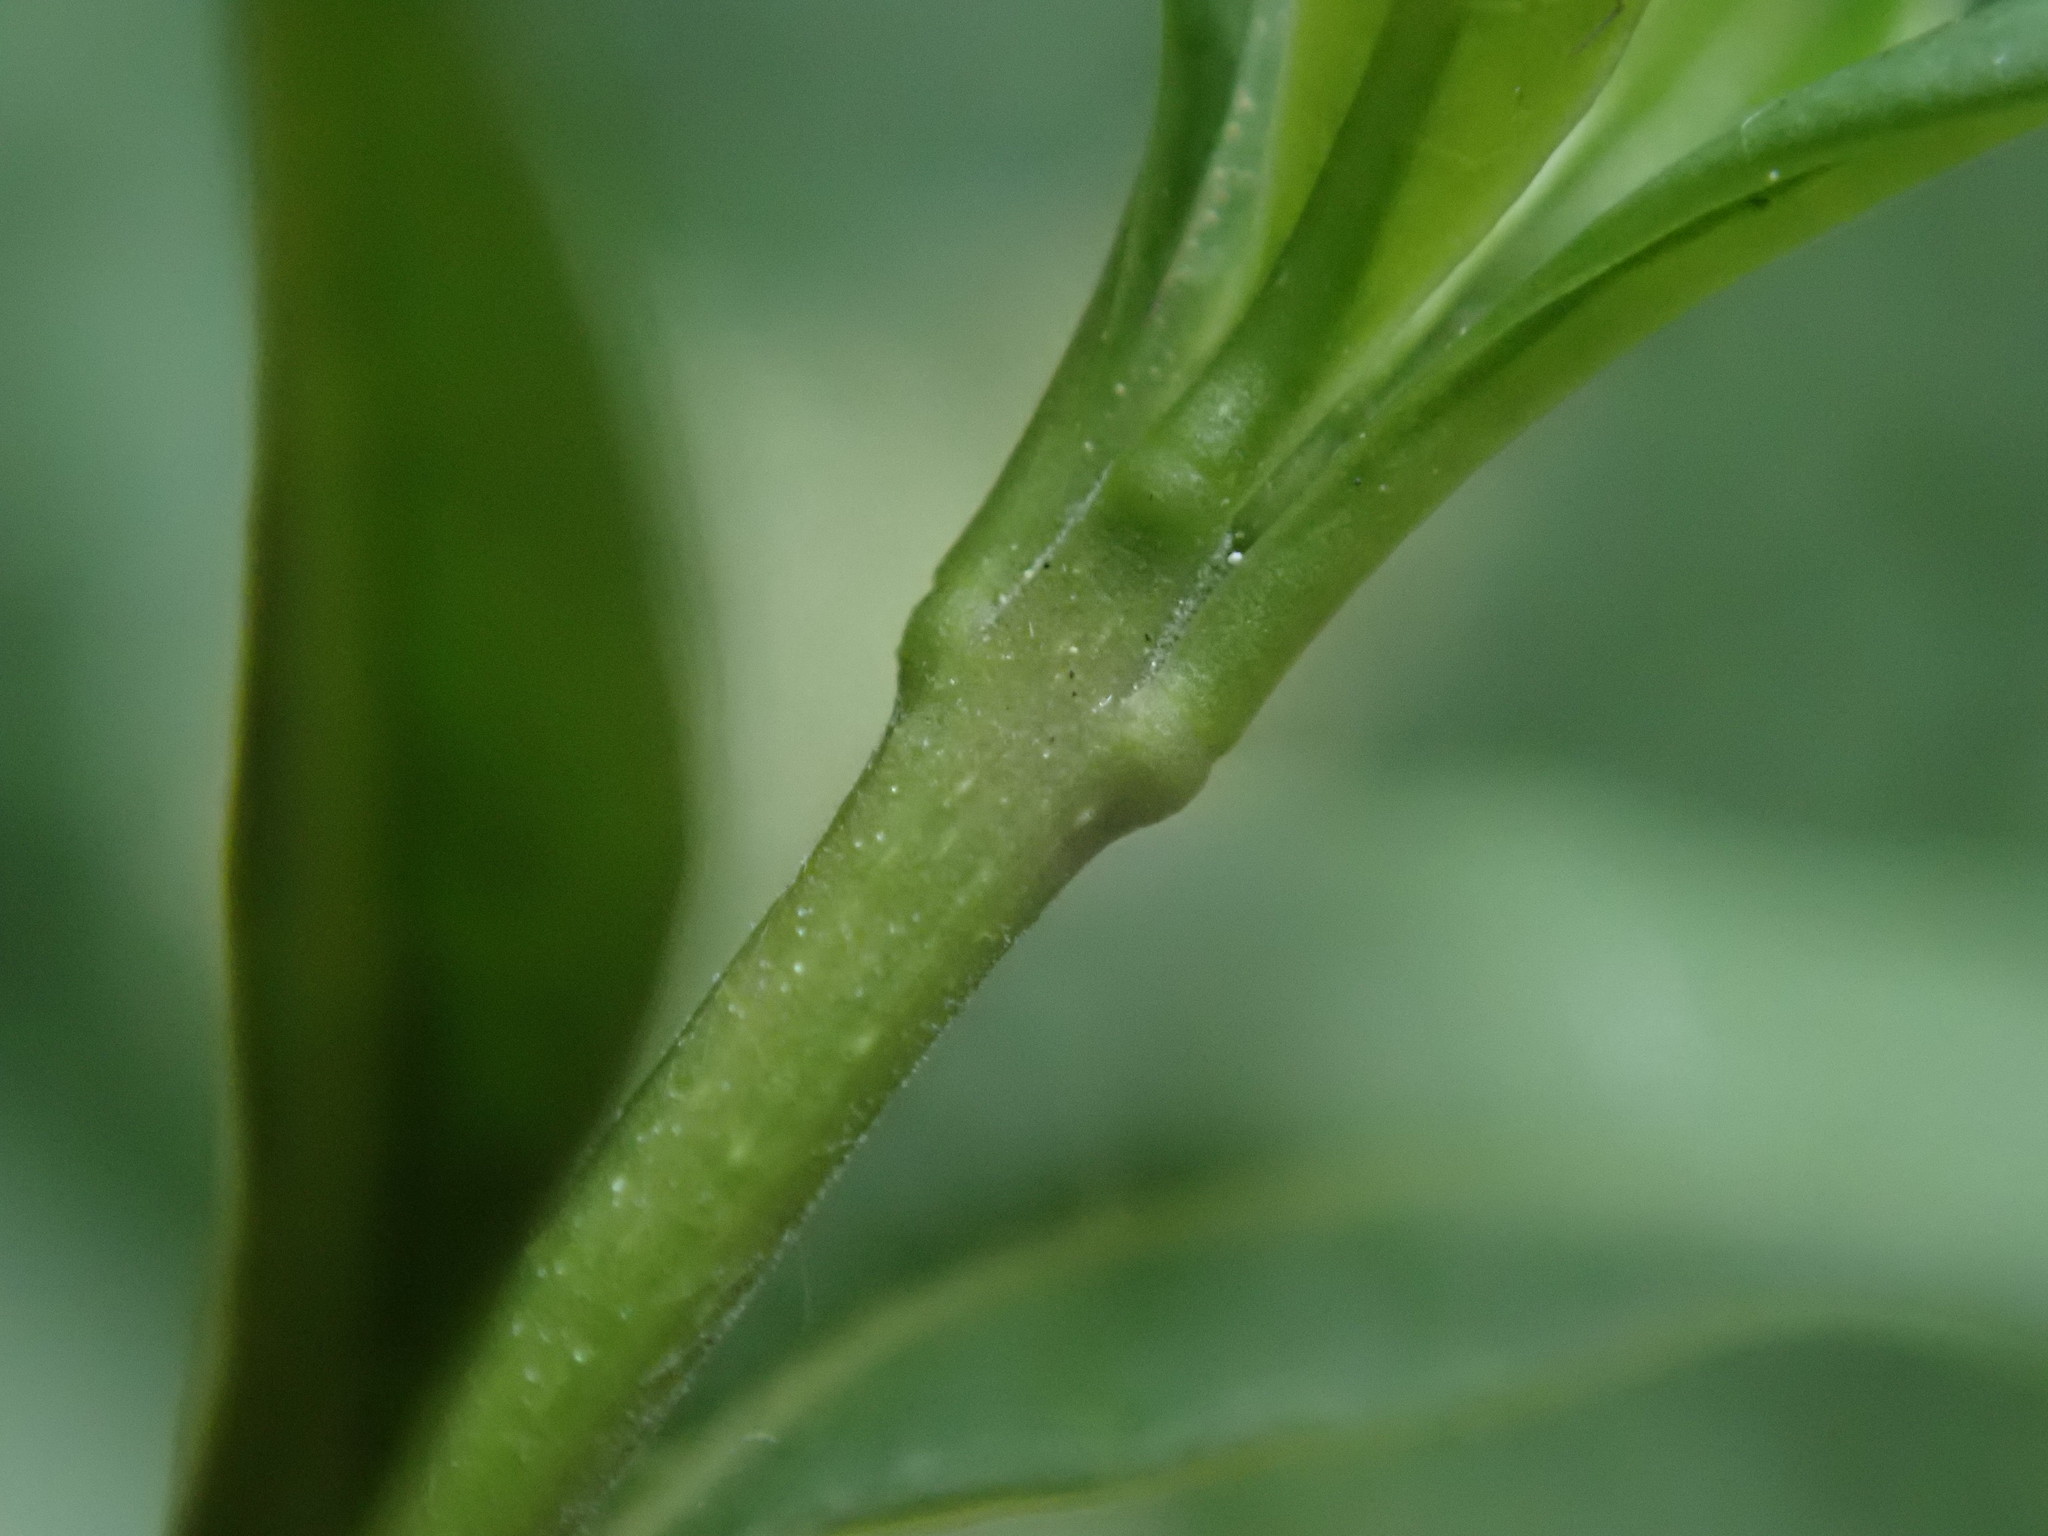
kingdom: Plantae
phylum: Tracheophyta
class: Magnoliopsida
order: Lamiales
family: Oleaceae
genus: Ligustrum
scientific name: Ligustrum vulgare
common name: Wild privet
